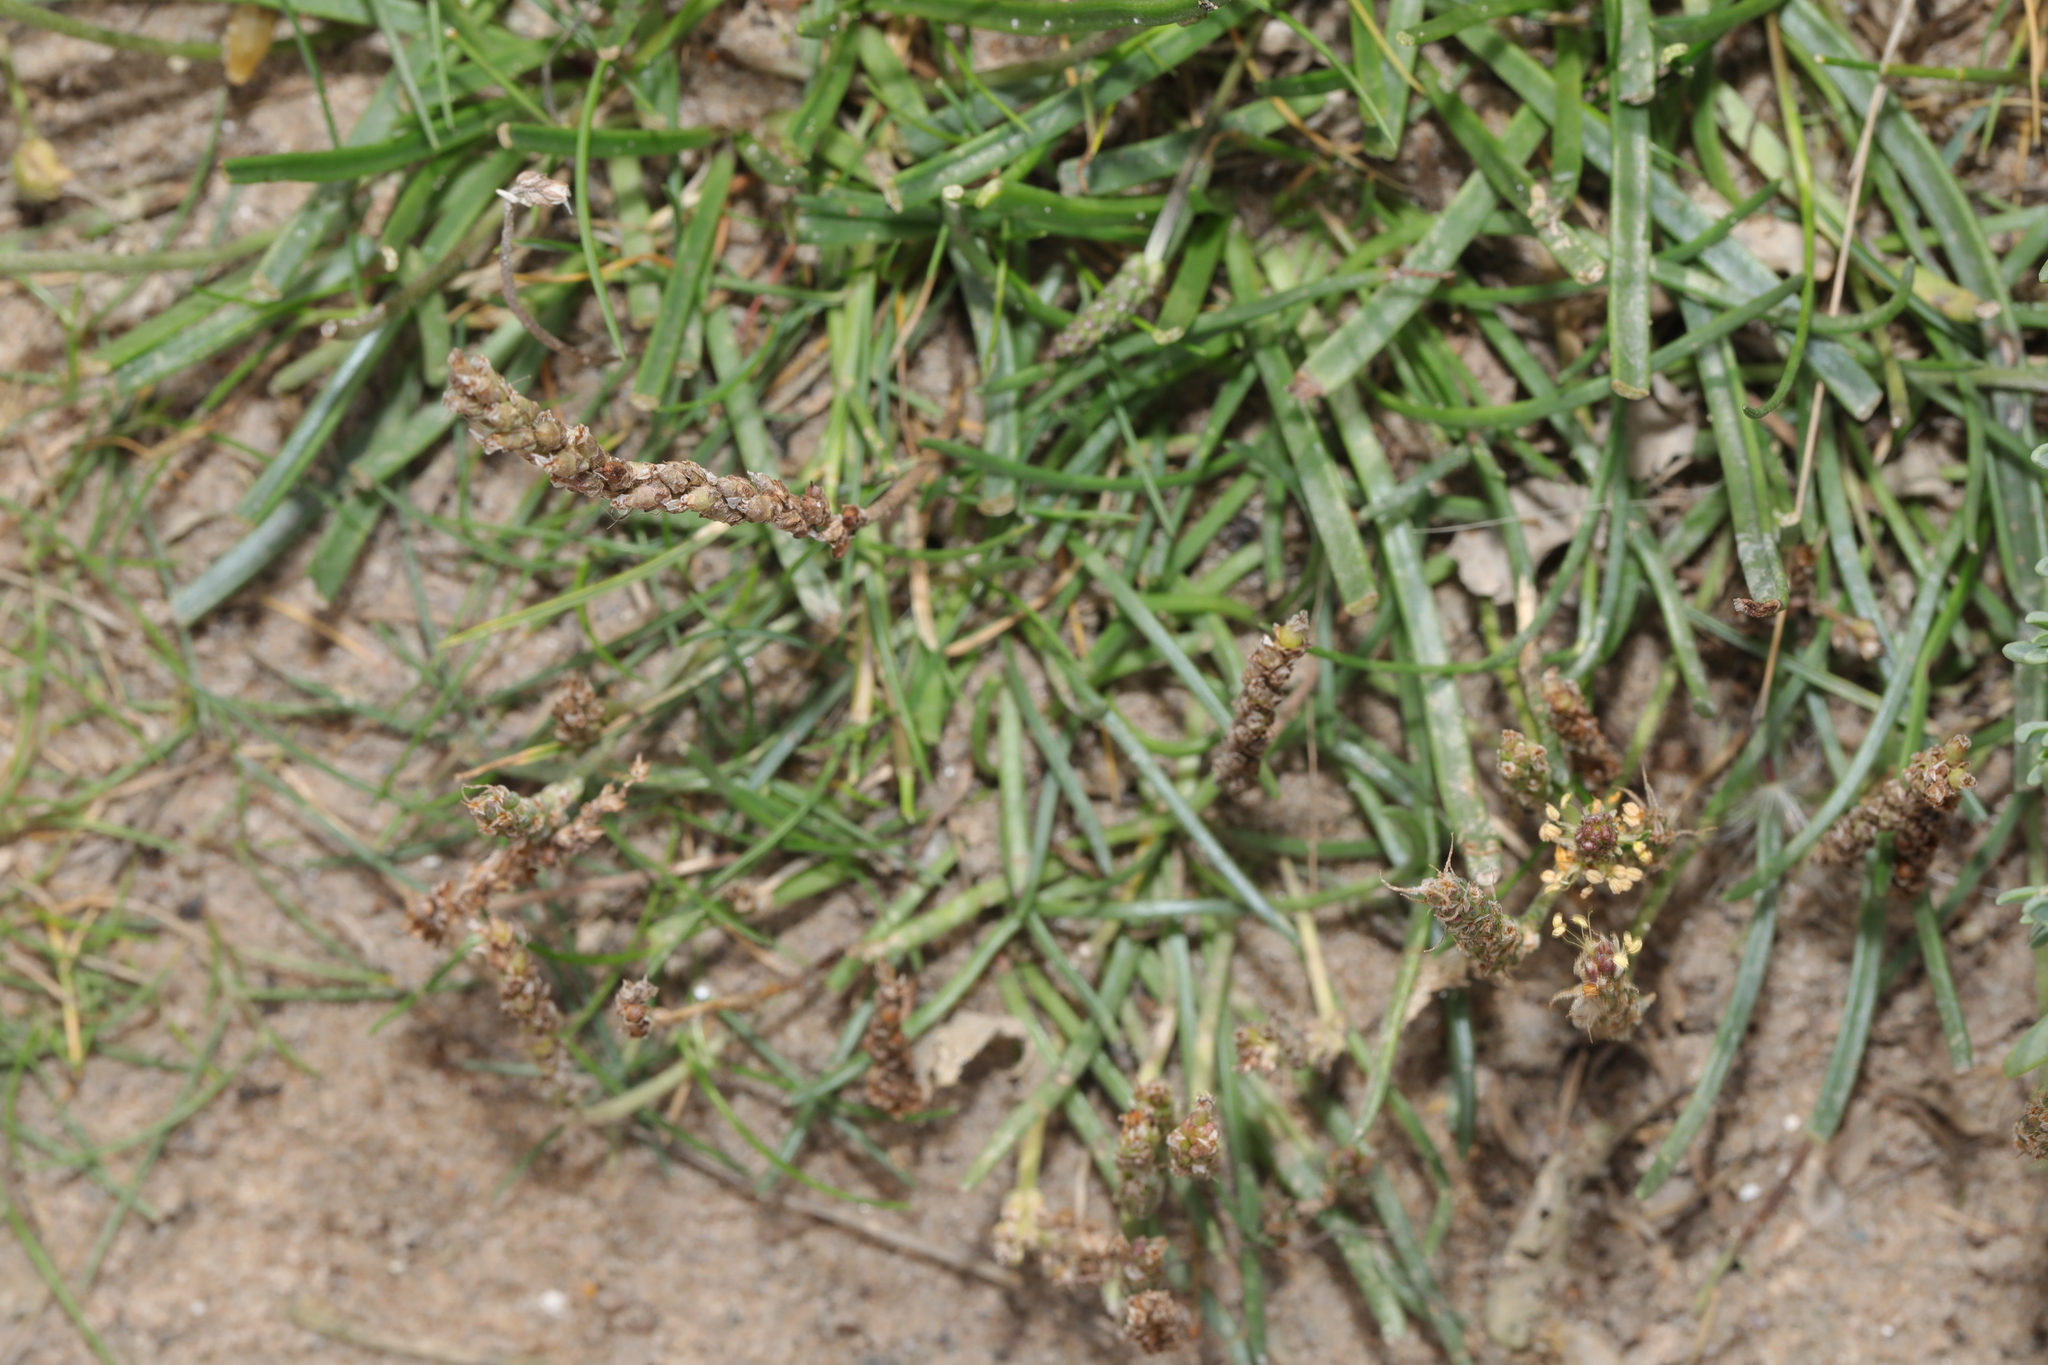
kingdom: Plantae
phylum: Tracheophyta
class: Magnoliopsida
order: Lamiales
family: Plantaginaceae
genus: Plantago
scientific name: Plantago maritima
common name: Sea plantain
